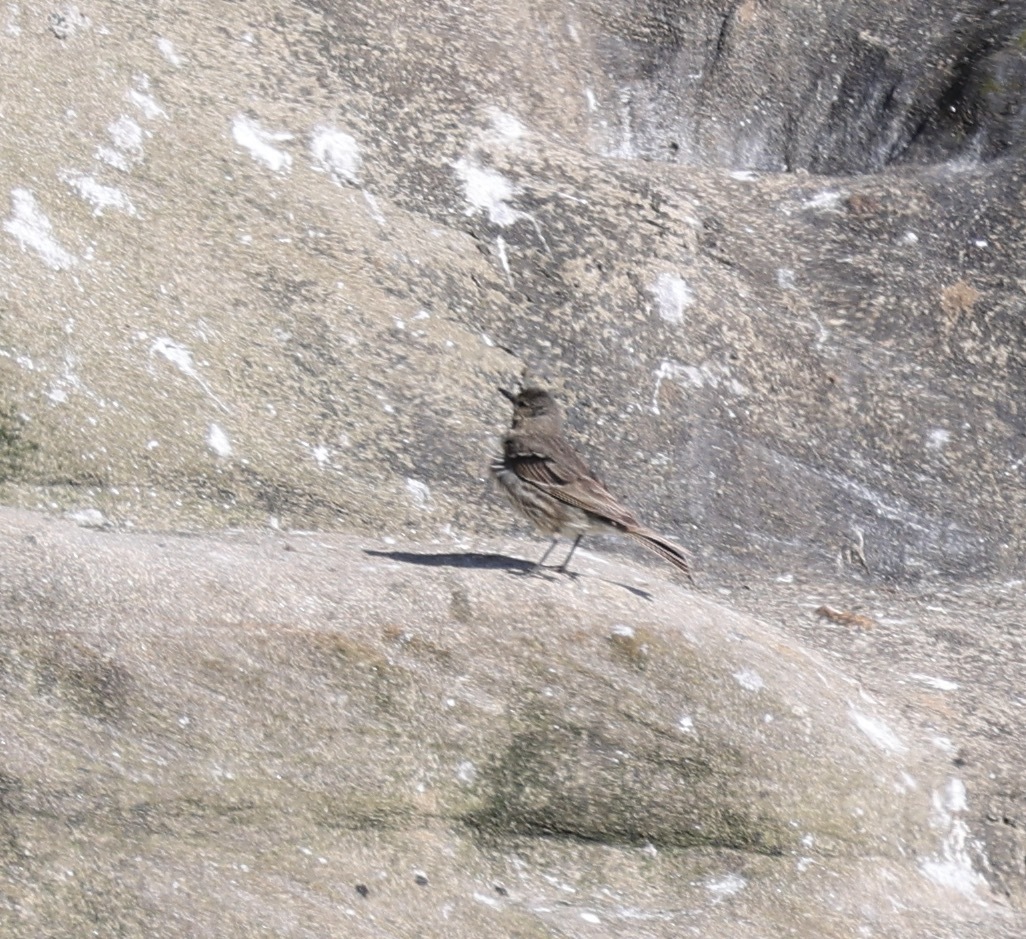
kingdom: Animalia
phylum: Chordata
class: Aves
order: Passeriformes
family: Motacillidae
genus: Anthus
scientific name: Anthus petrosus
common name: Eurasian rock pipit
